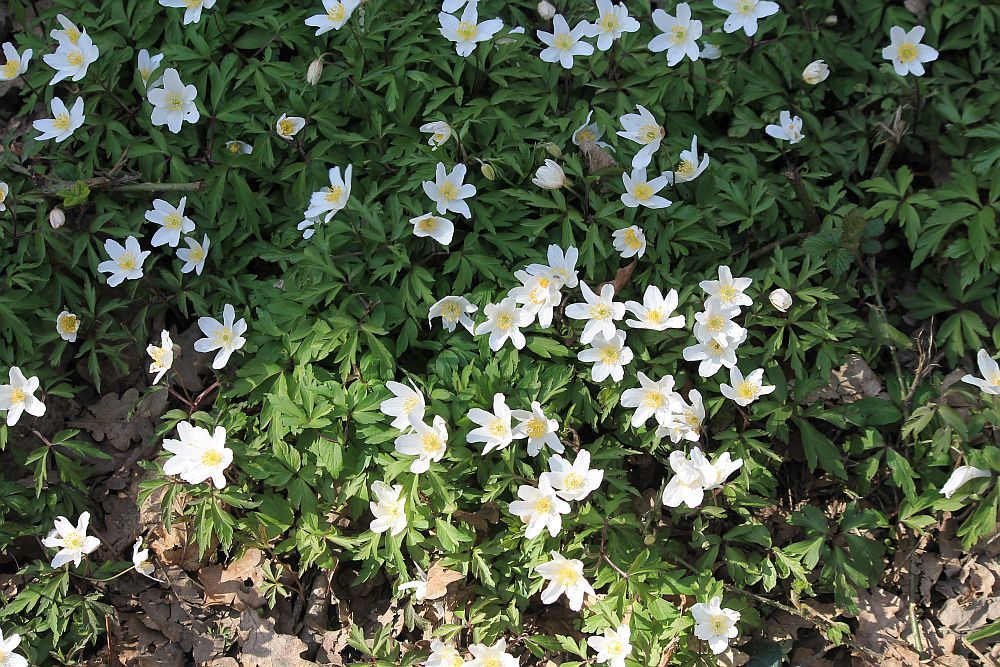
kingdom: Plantae
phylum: Tracheophyta
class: Magnoliopsida
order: Ranunculales
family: Ranunculaceae
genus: Anemone
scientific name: Anemone nemorosa
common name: Wood anemone
